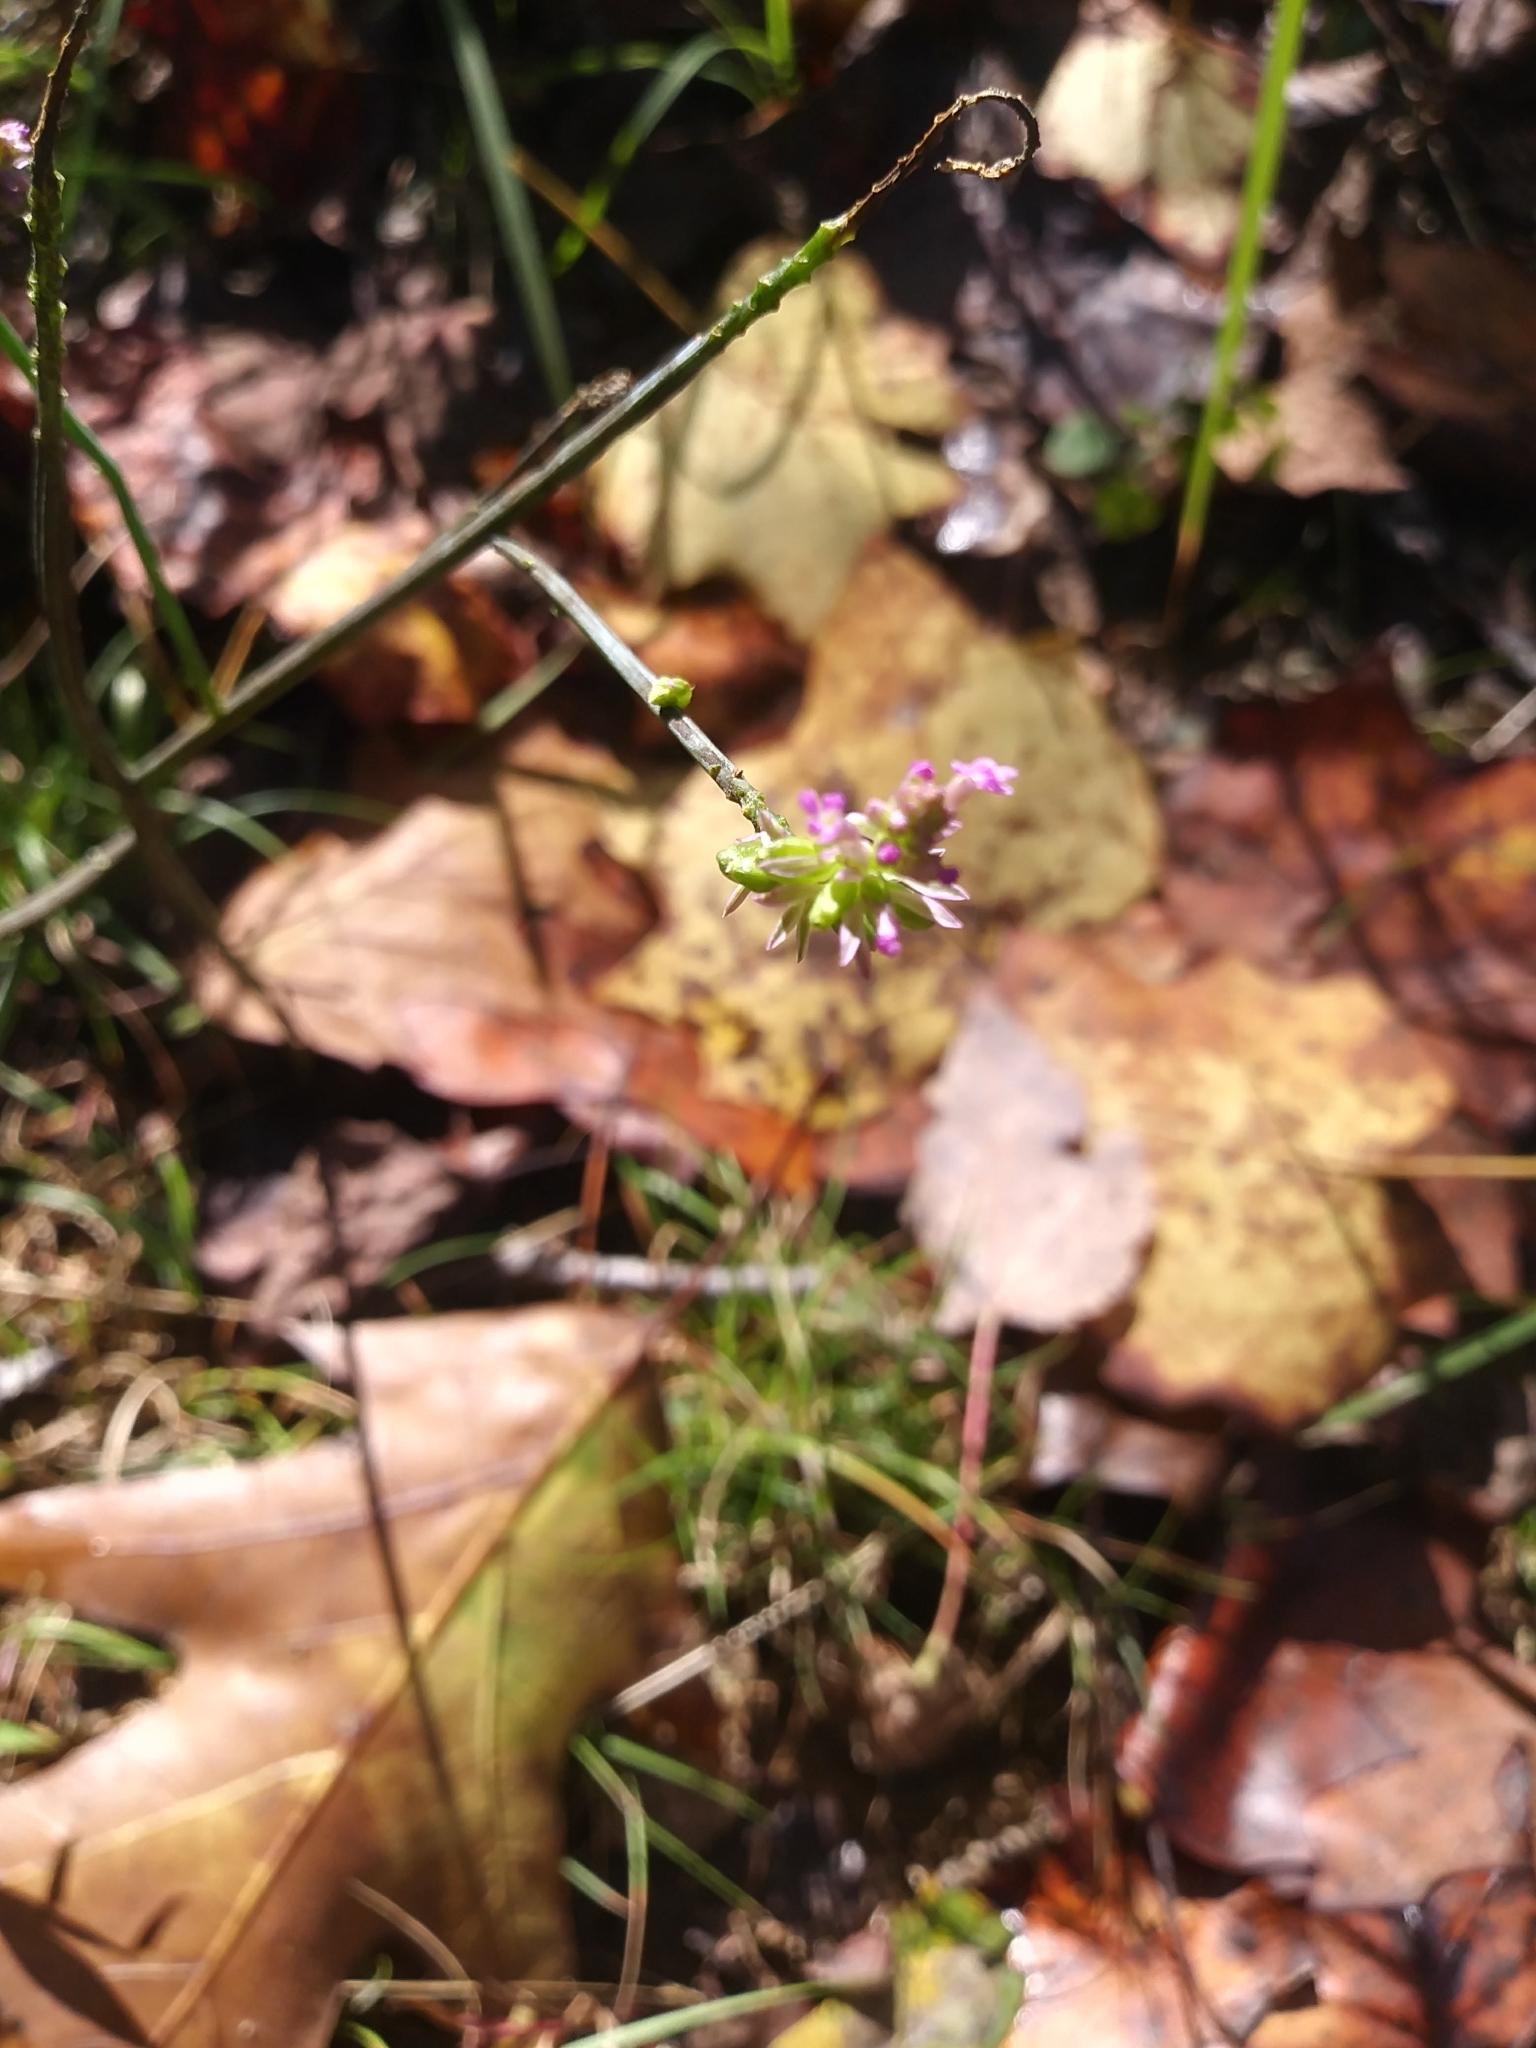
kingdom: Plantae
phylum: Tracheophyta
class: Magnoliopsida
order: Fabales
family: Polygalaceae
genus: Polygala
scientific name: Polygala incarnata
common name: Pink milkwort
